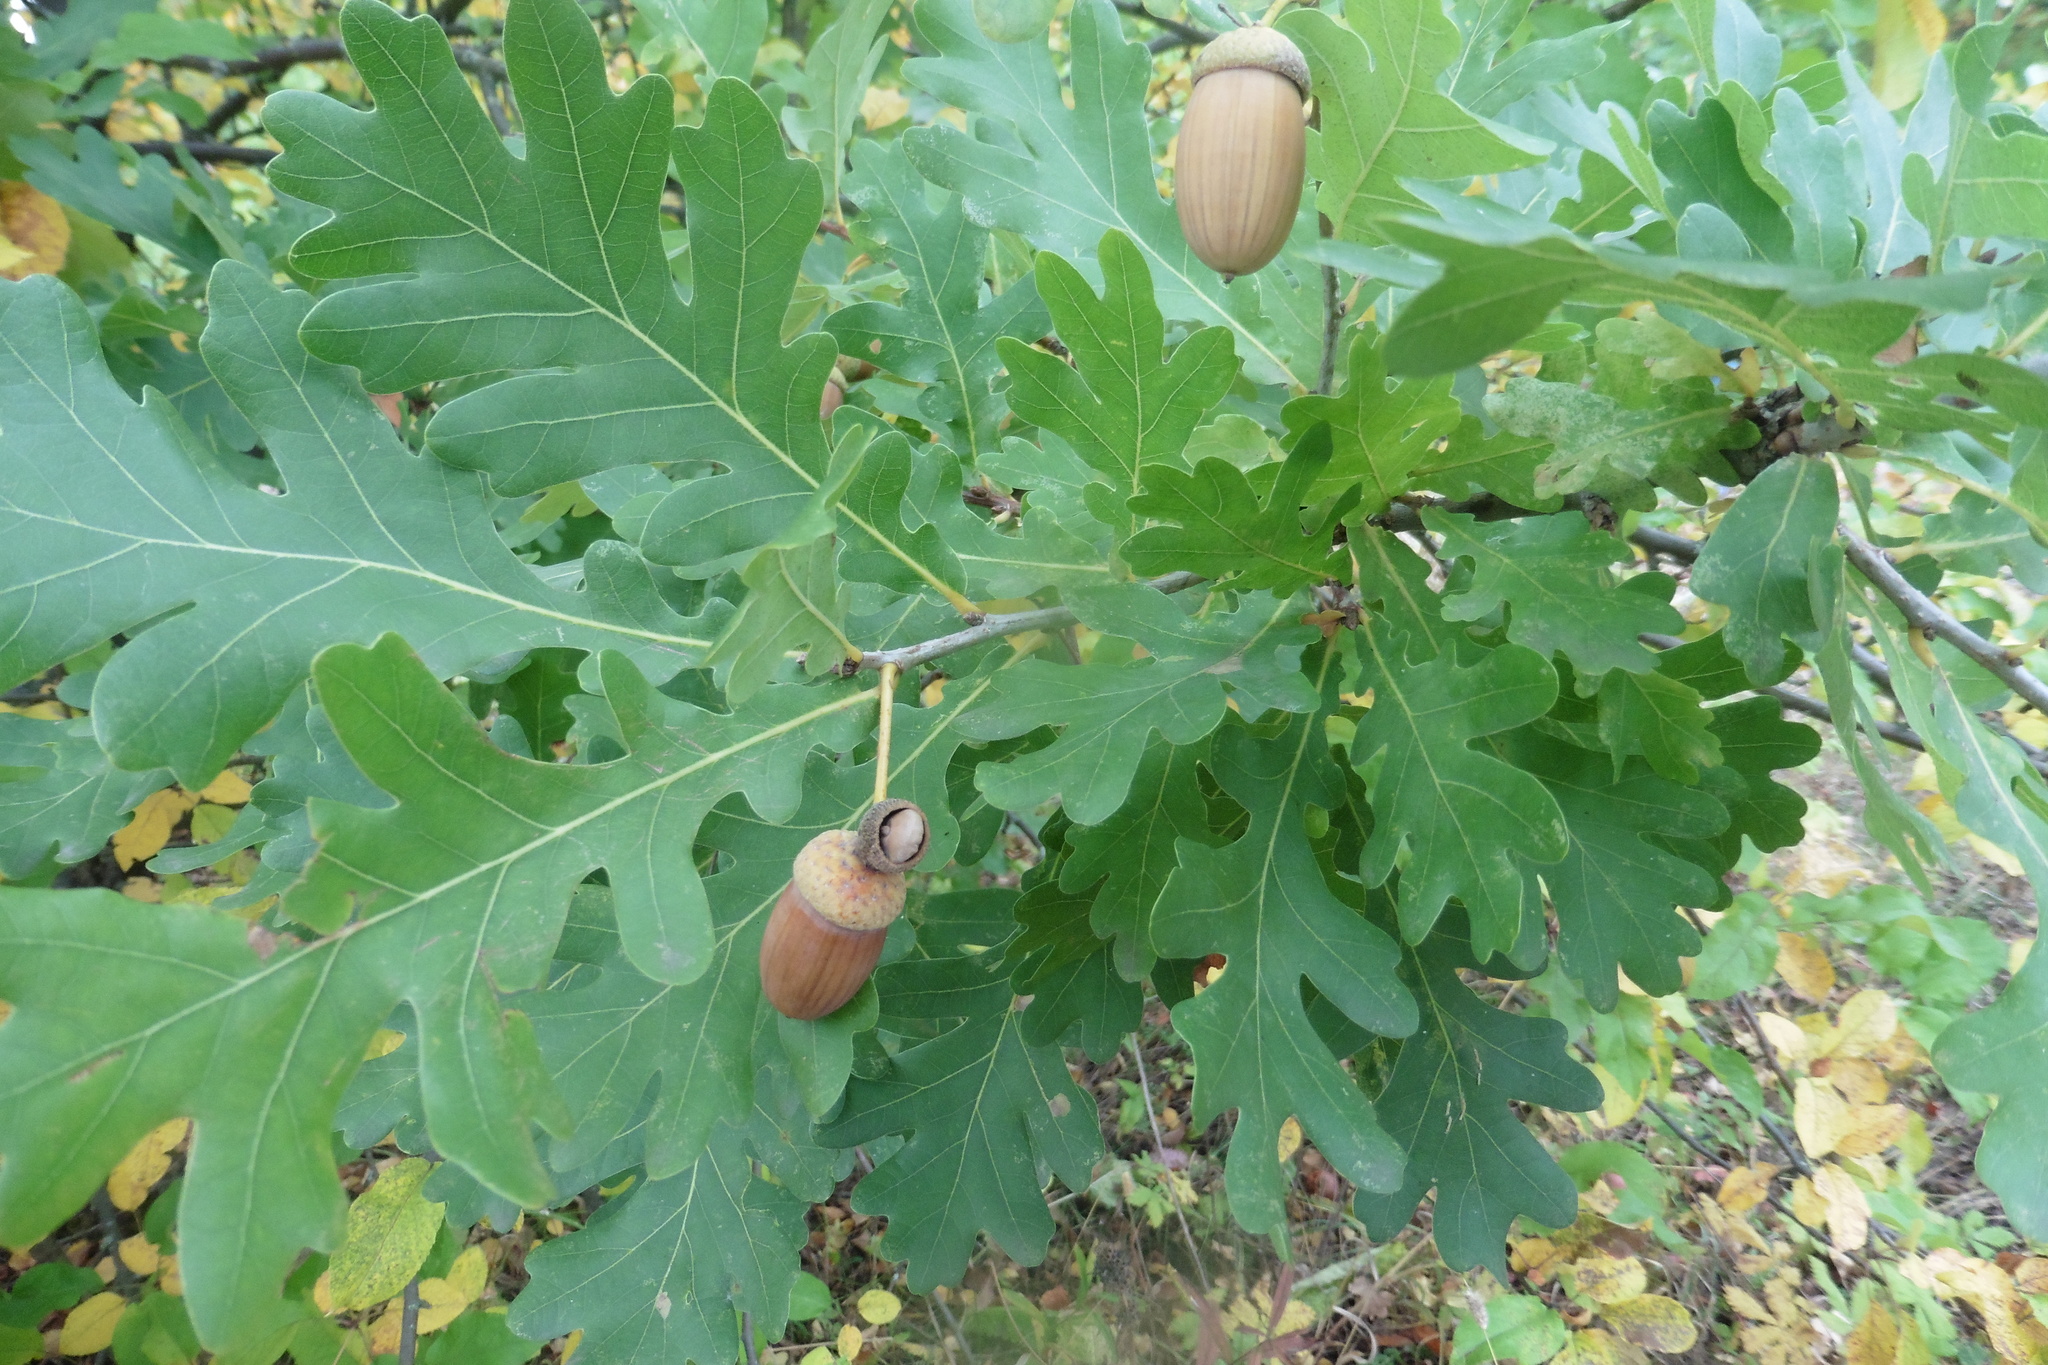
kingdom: Plantae
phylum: Tracheophyta
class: Magnoliopsida
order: Fagales
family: Fagaceae
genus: Quercus
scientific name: Quercus robur
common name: Pedunculate oak
